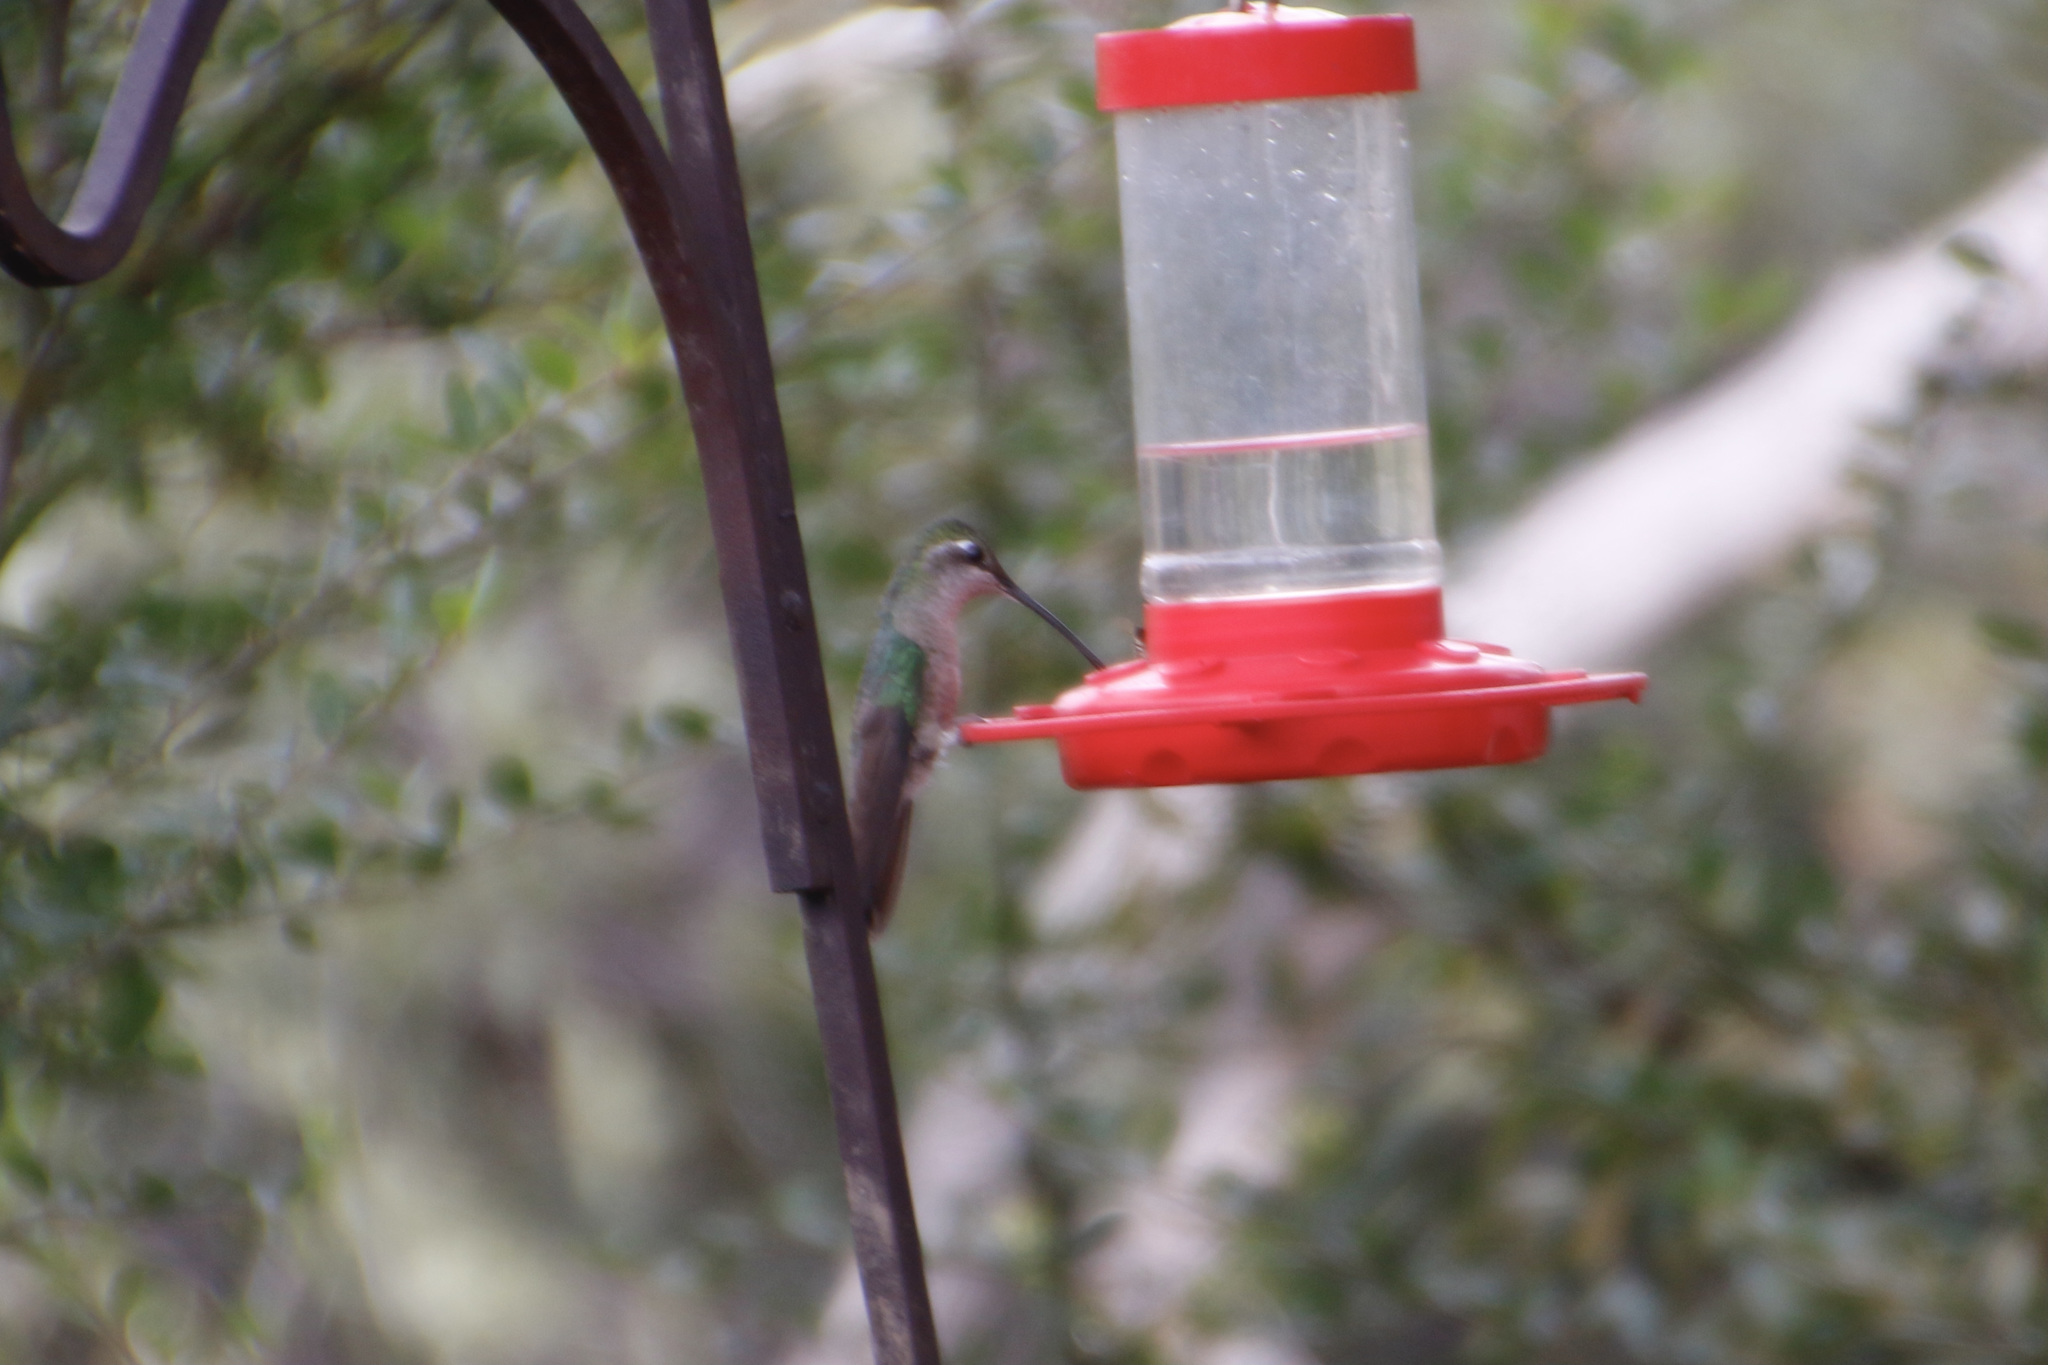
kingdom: Animalia
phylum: Chordata
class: Aves
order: Apodiformes
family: Trochilidae
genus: Eugenes
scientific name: Eugenes fulgens
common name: Magnificent hummingbird
